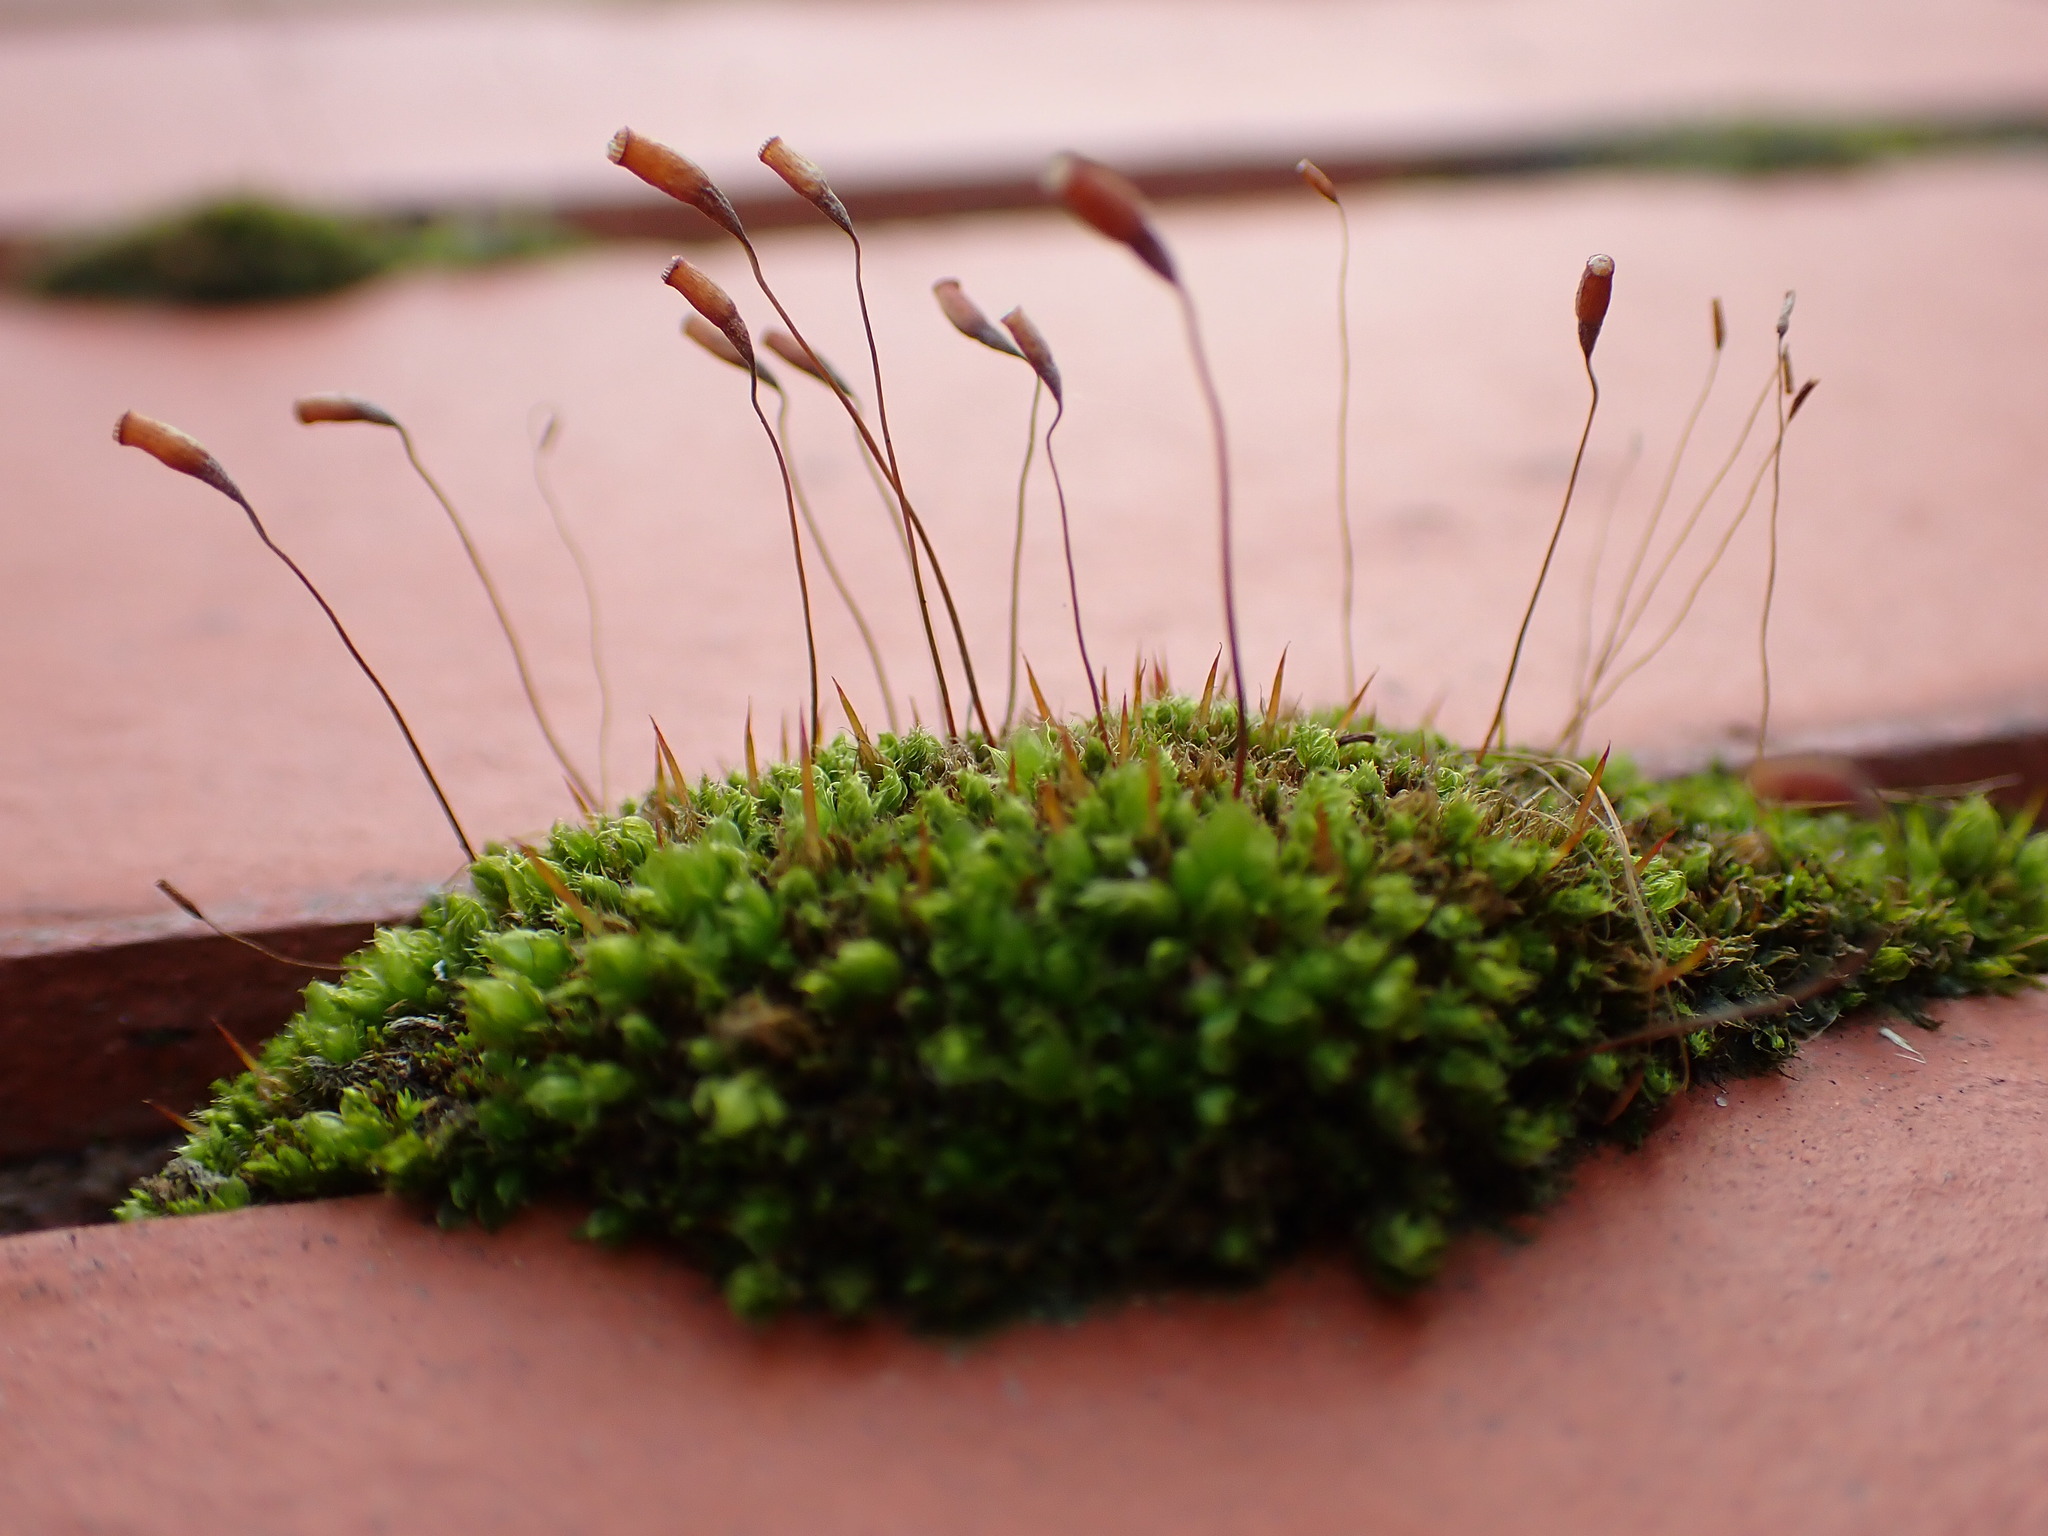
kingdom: Plantae
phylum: Bryophyta
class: Bryopsida
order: Bryales
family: Bryaceae
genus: Rosulabryum
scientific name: Rosulabryum capillare
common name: Capillary thread-moss
